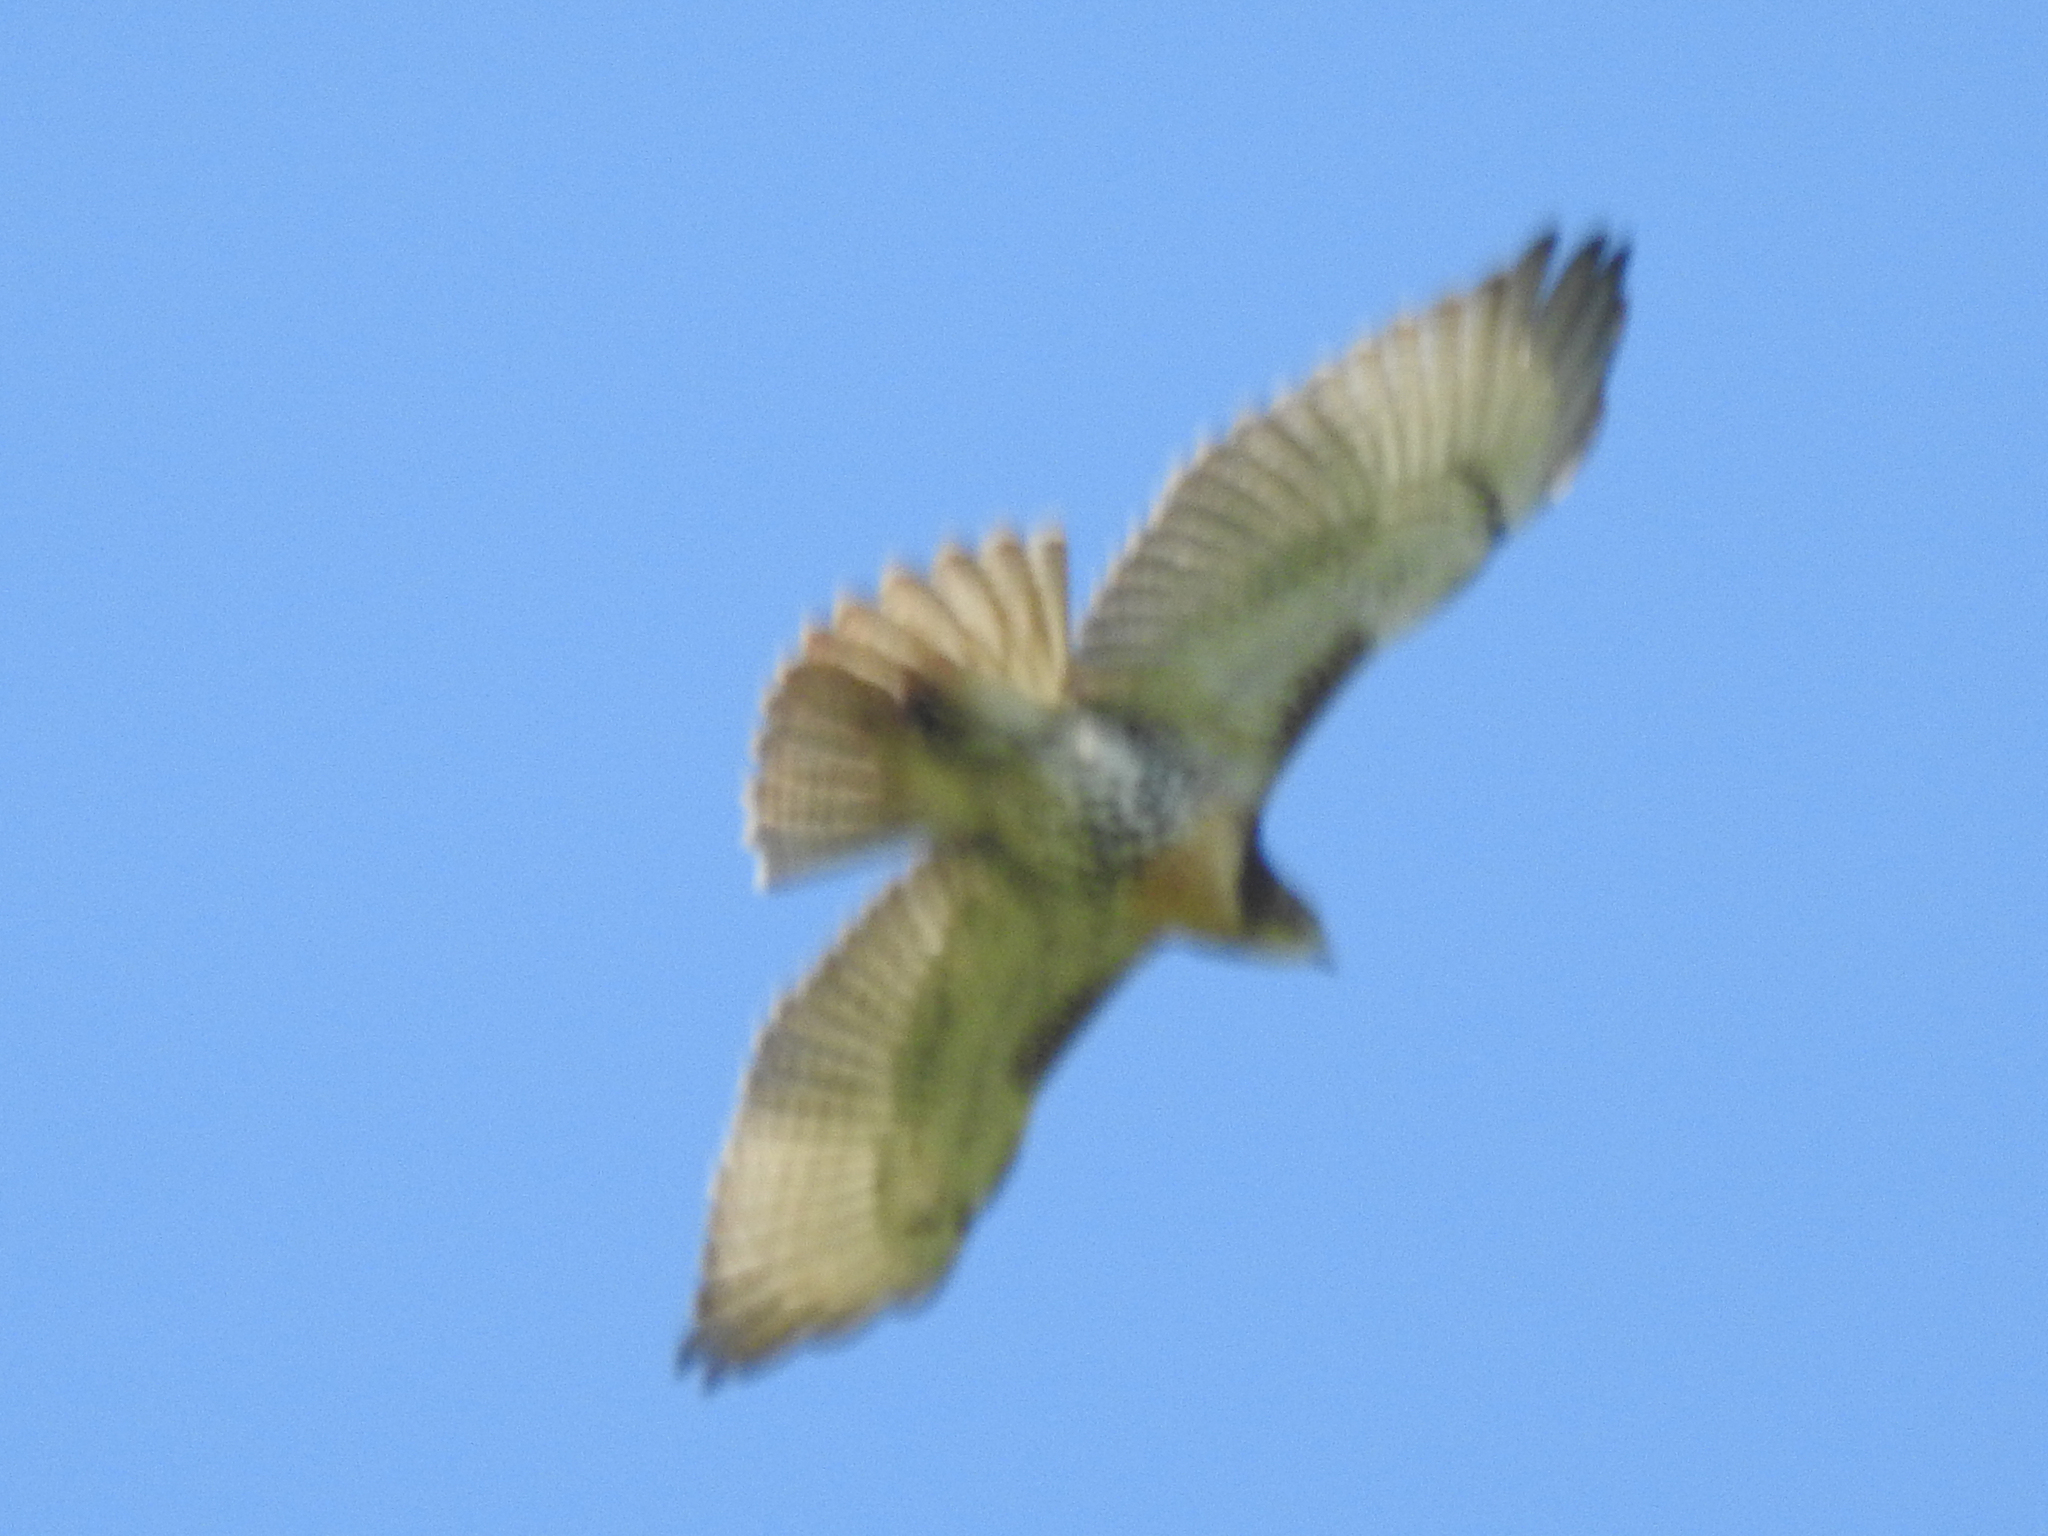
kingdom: Animalia
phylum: Chordata
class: Aves
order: Accipitriformes
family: Accipitridae
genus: Buteo
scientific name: Buteo jamaicensis
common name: Red-tailed hawk
